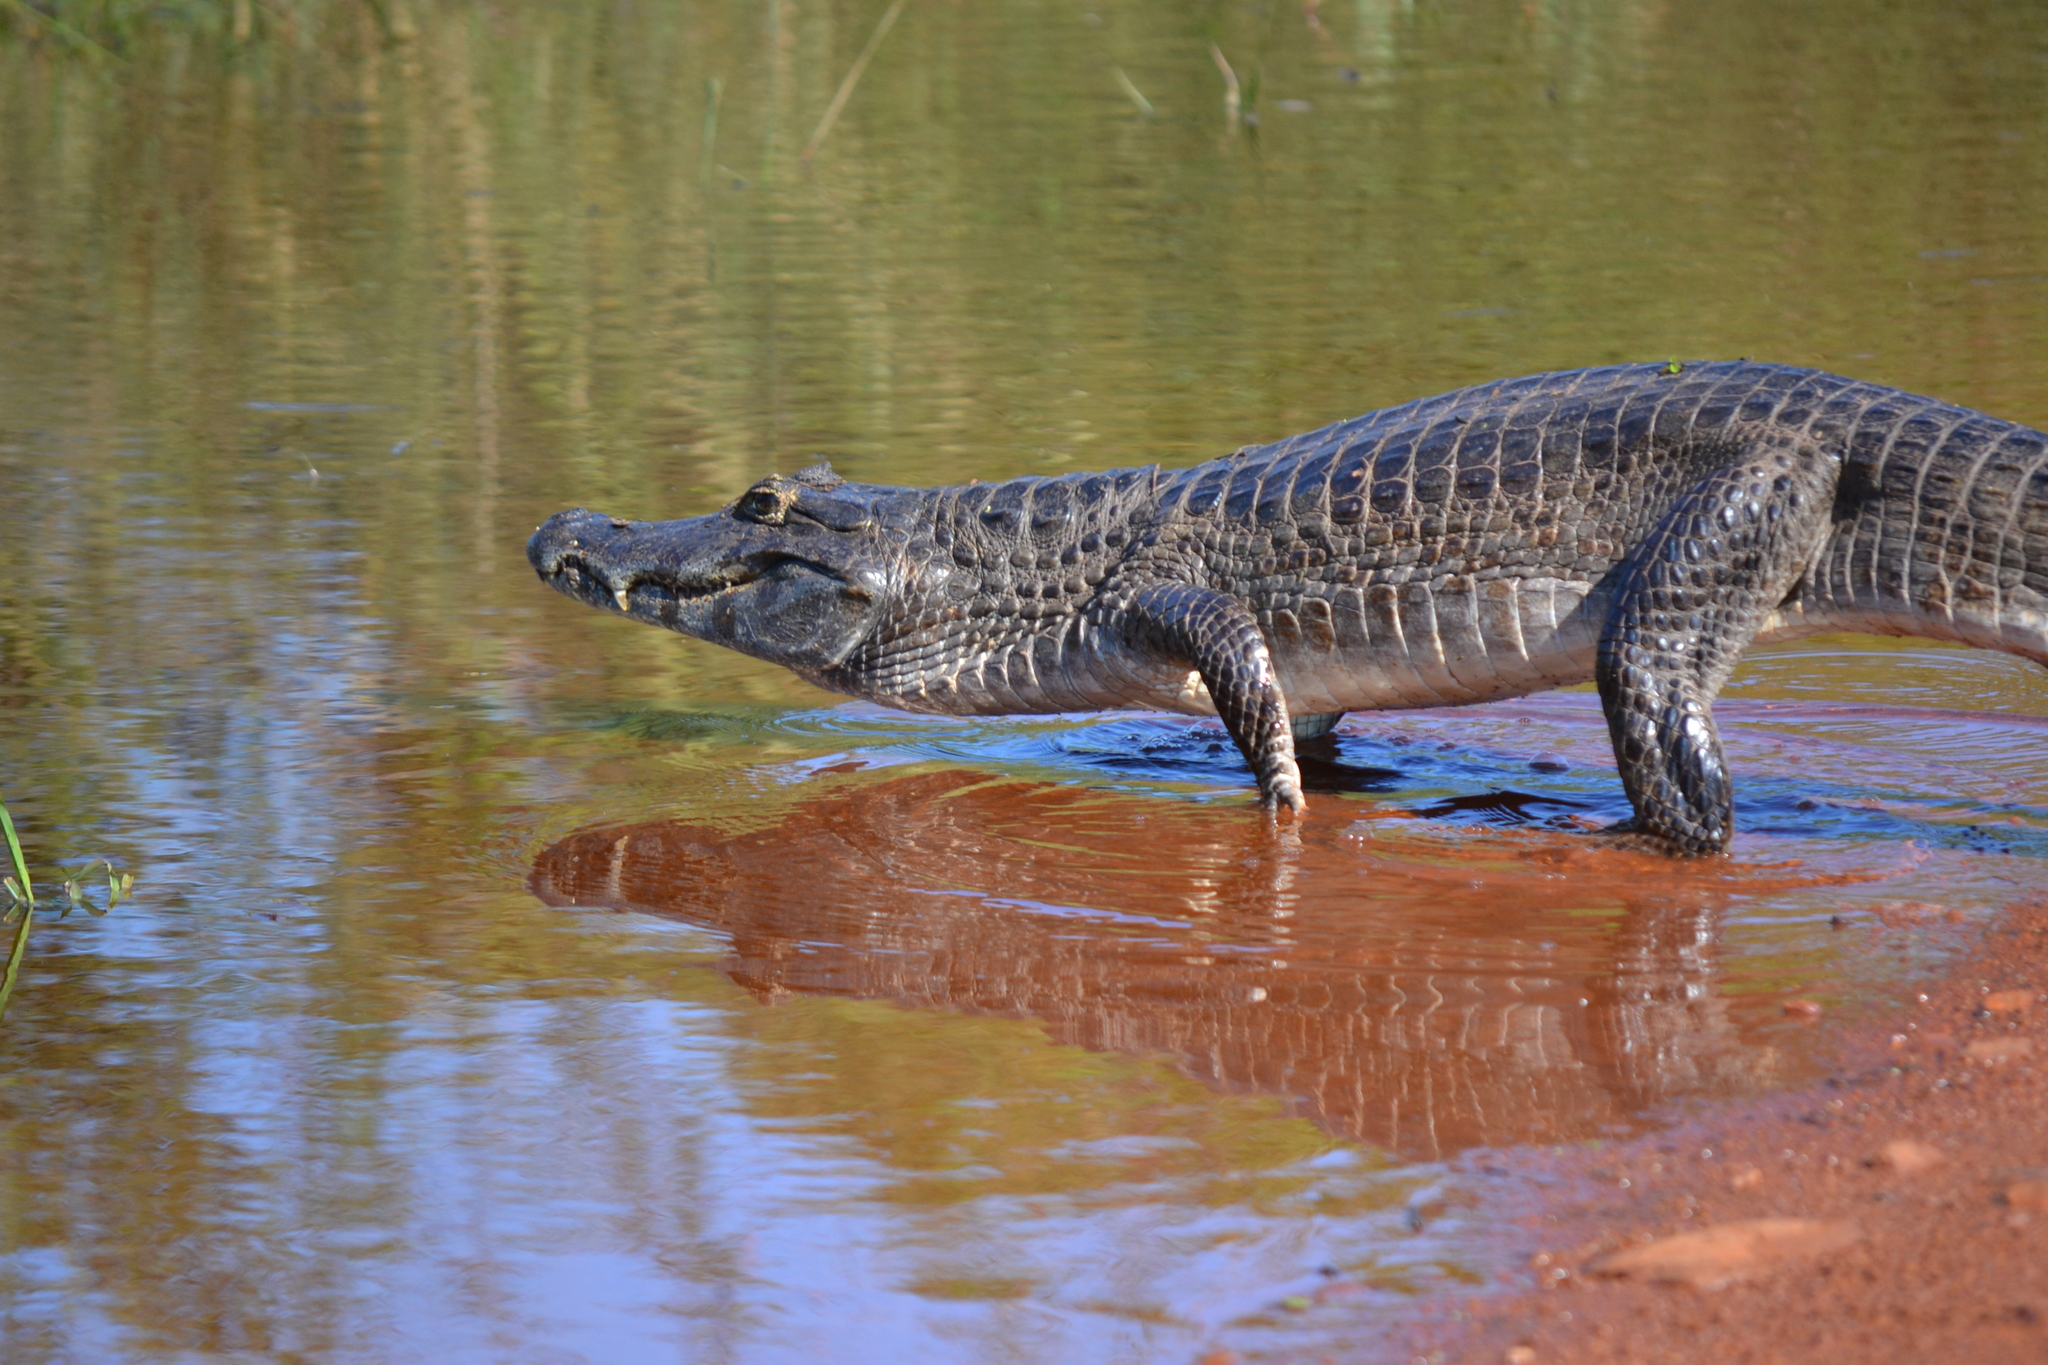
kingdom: Animalia
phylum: Chordata
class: Crocodylia
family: Alligatoridae
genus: Caiman
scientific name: Caiman yacare
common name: Yacare caiman
